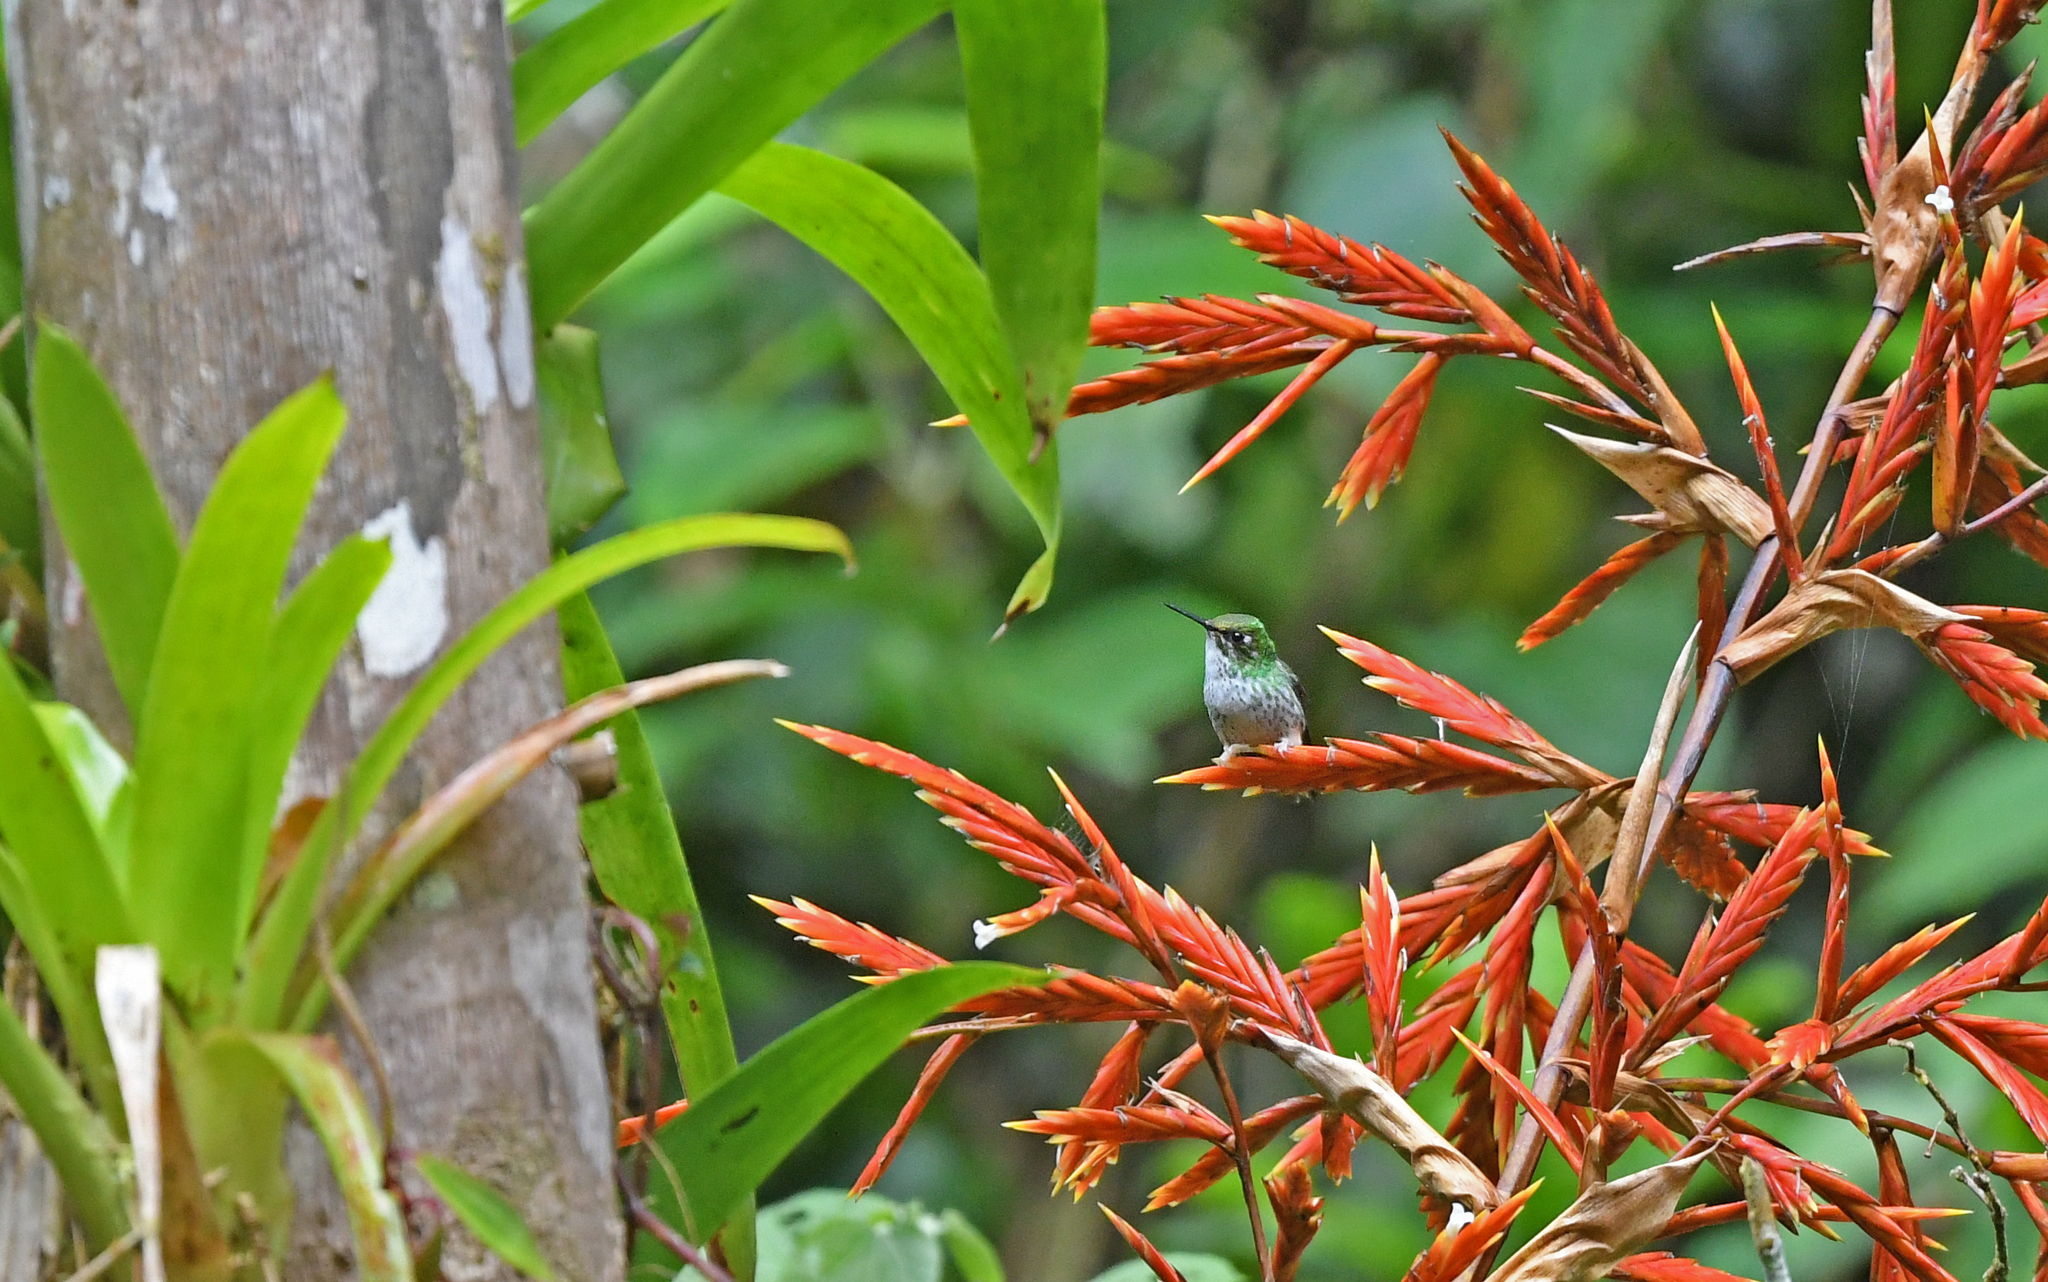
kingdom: Animalia
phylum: Chordata
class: Aves
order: Apodiformes
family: Trochilidae
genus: Ocreatus
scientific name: Ocreatus underwoodii
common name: Booted racket-tail
